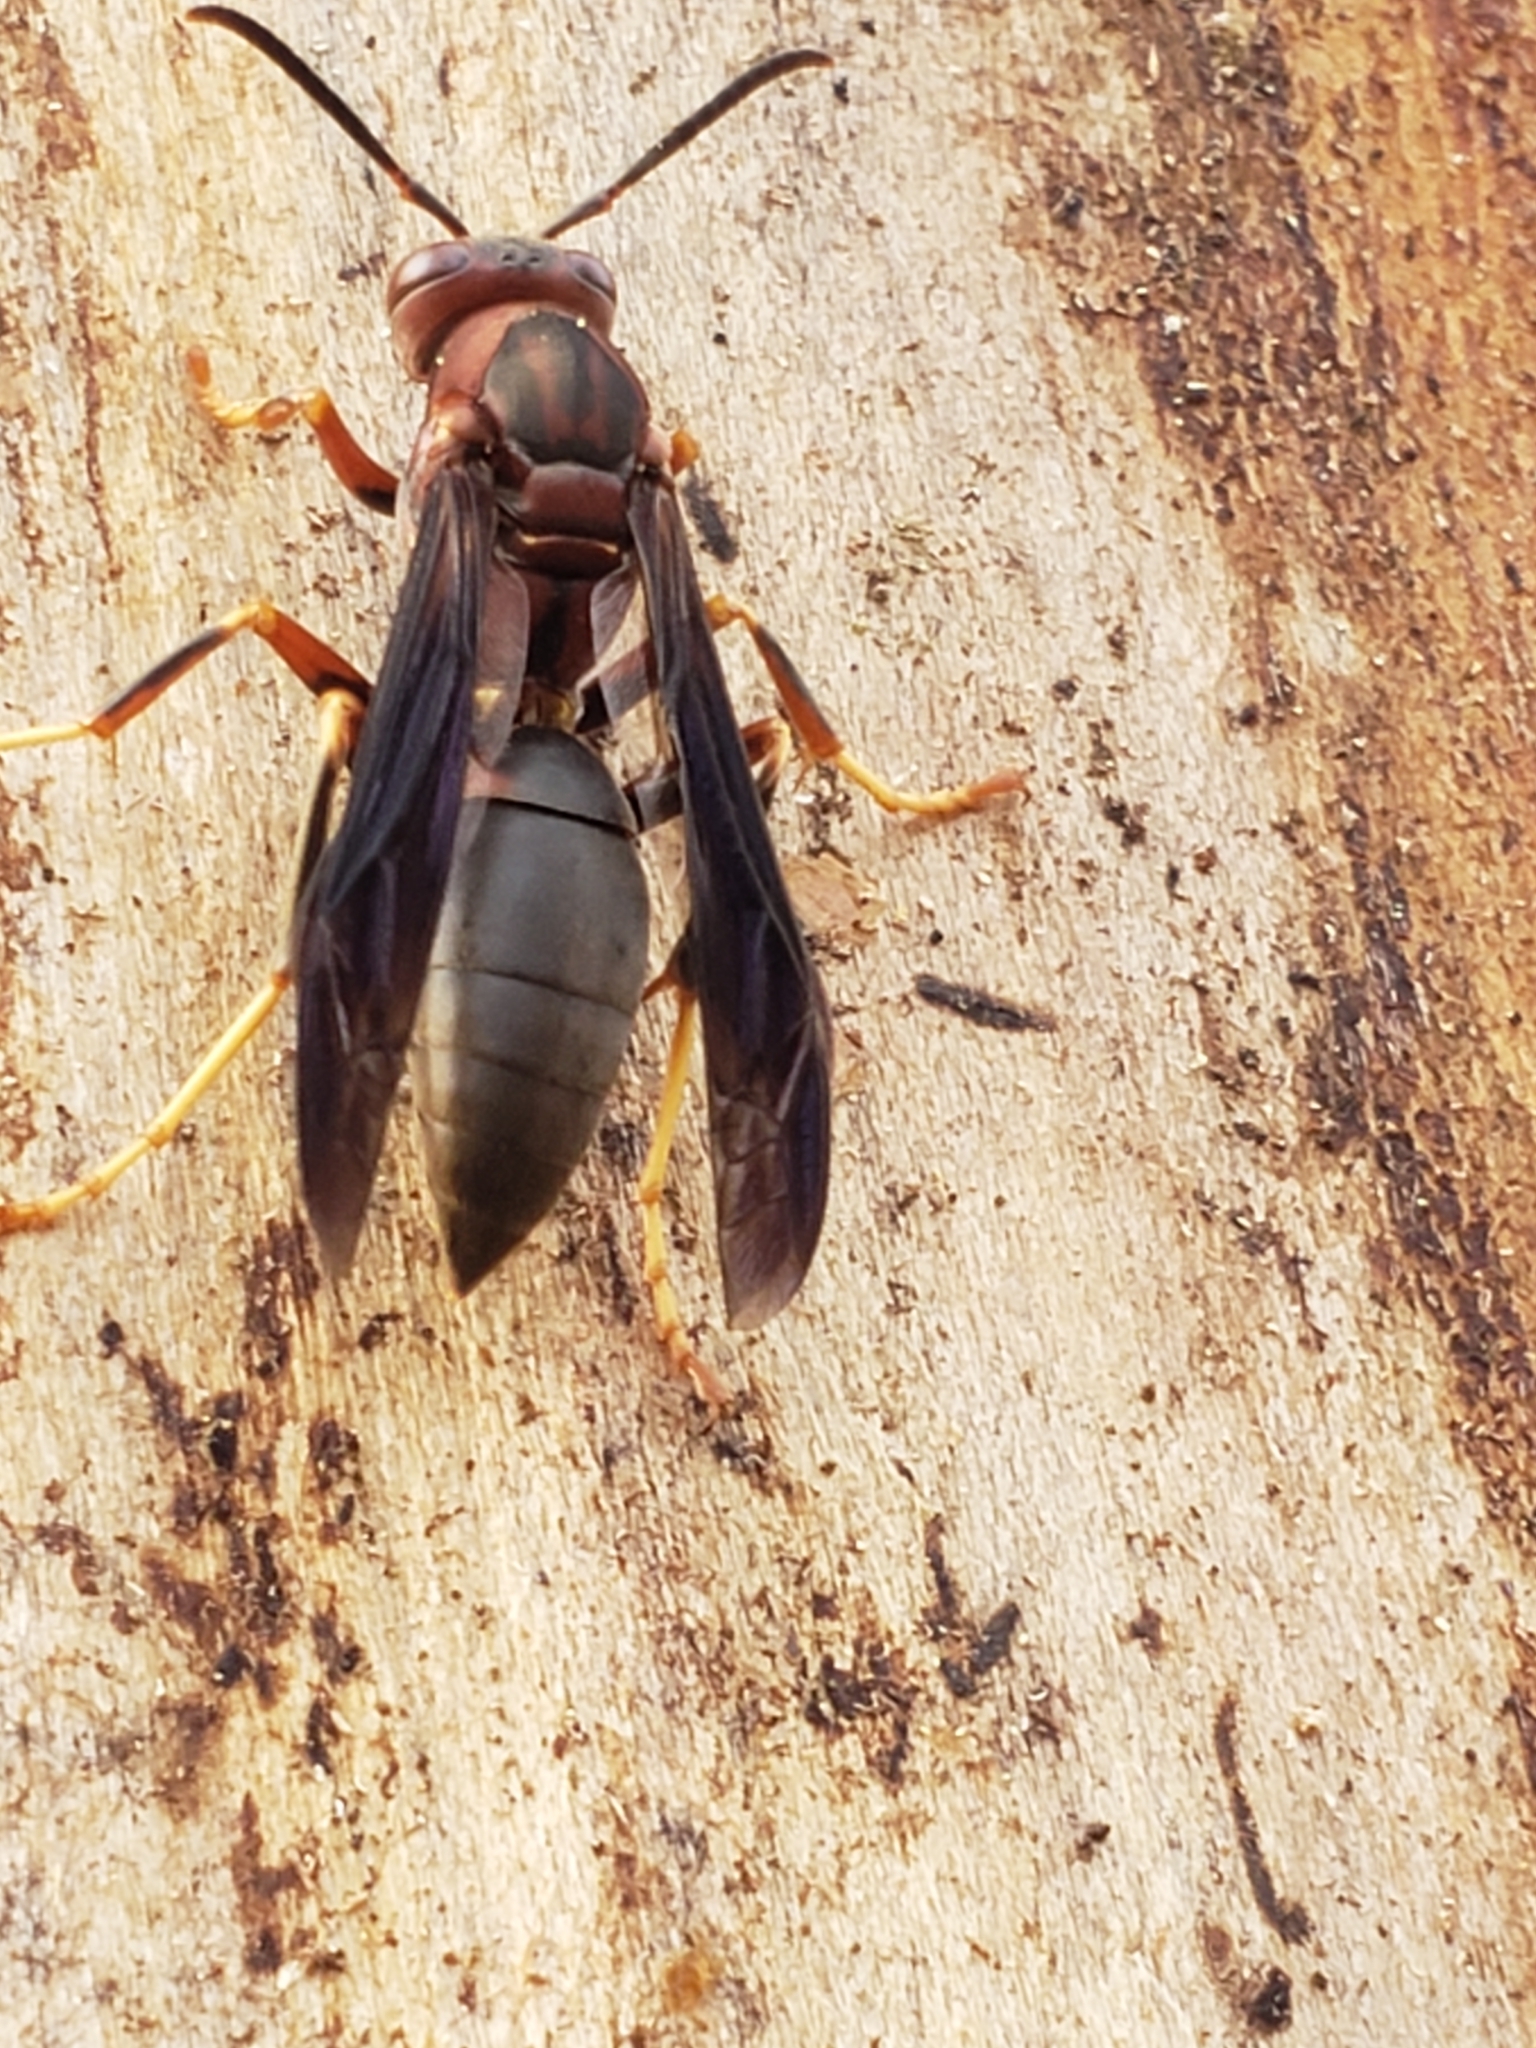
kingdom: Animalia
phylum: Arthropoda
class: Insecta
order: Hymenoptera
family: Eumenidae
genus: Polistes
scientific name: Polistes metricus
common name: Metric paper wasp
